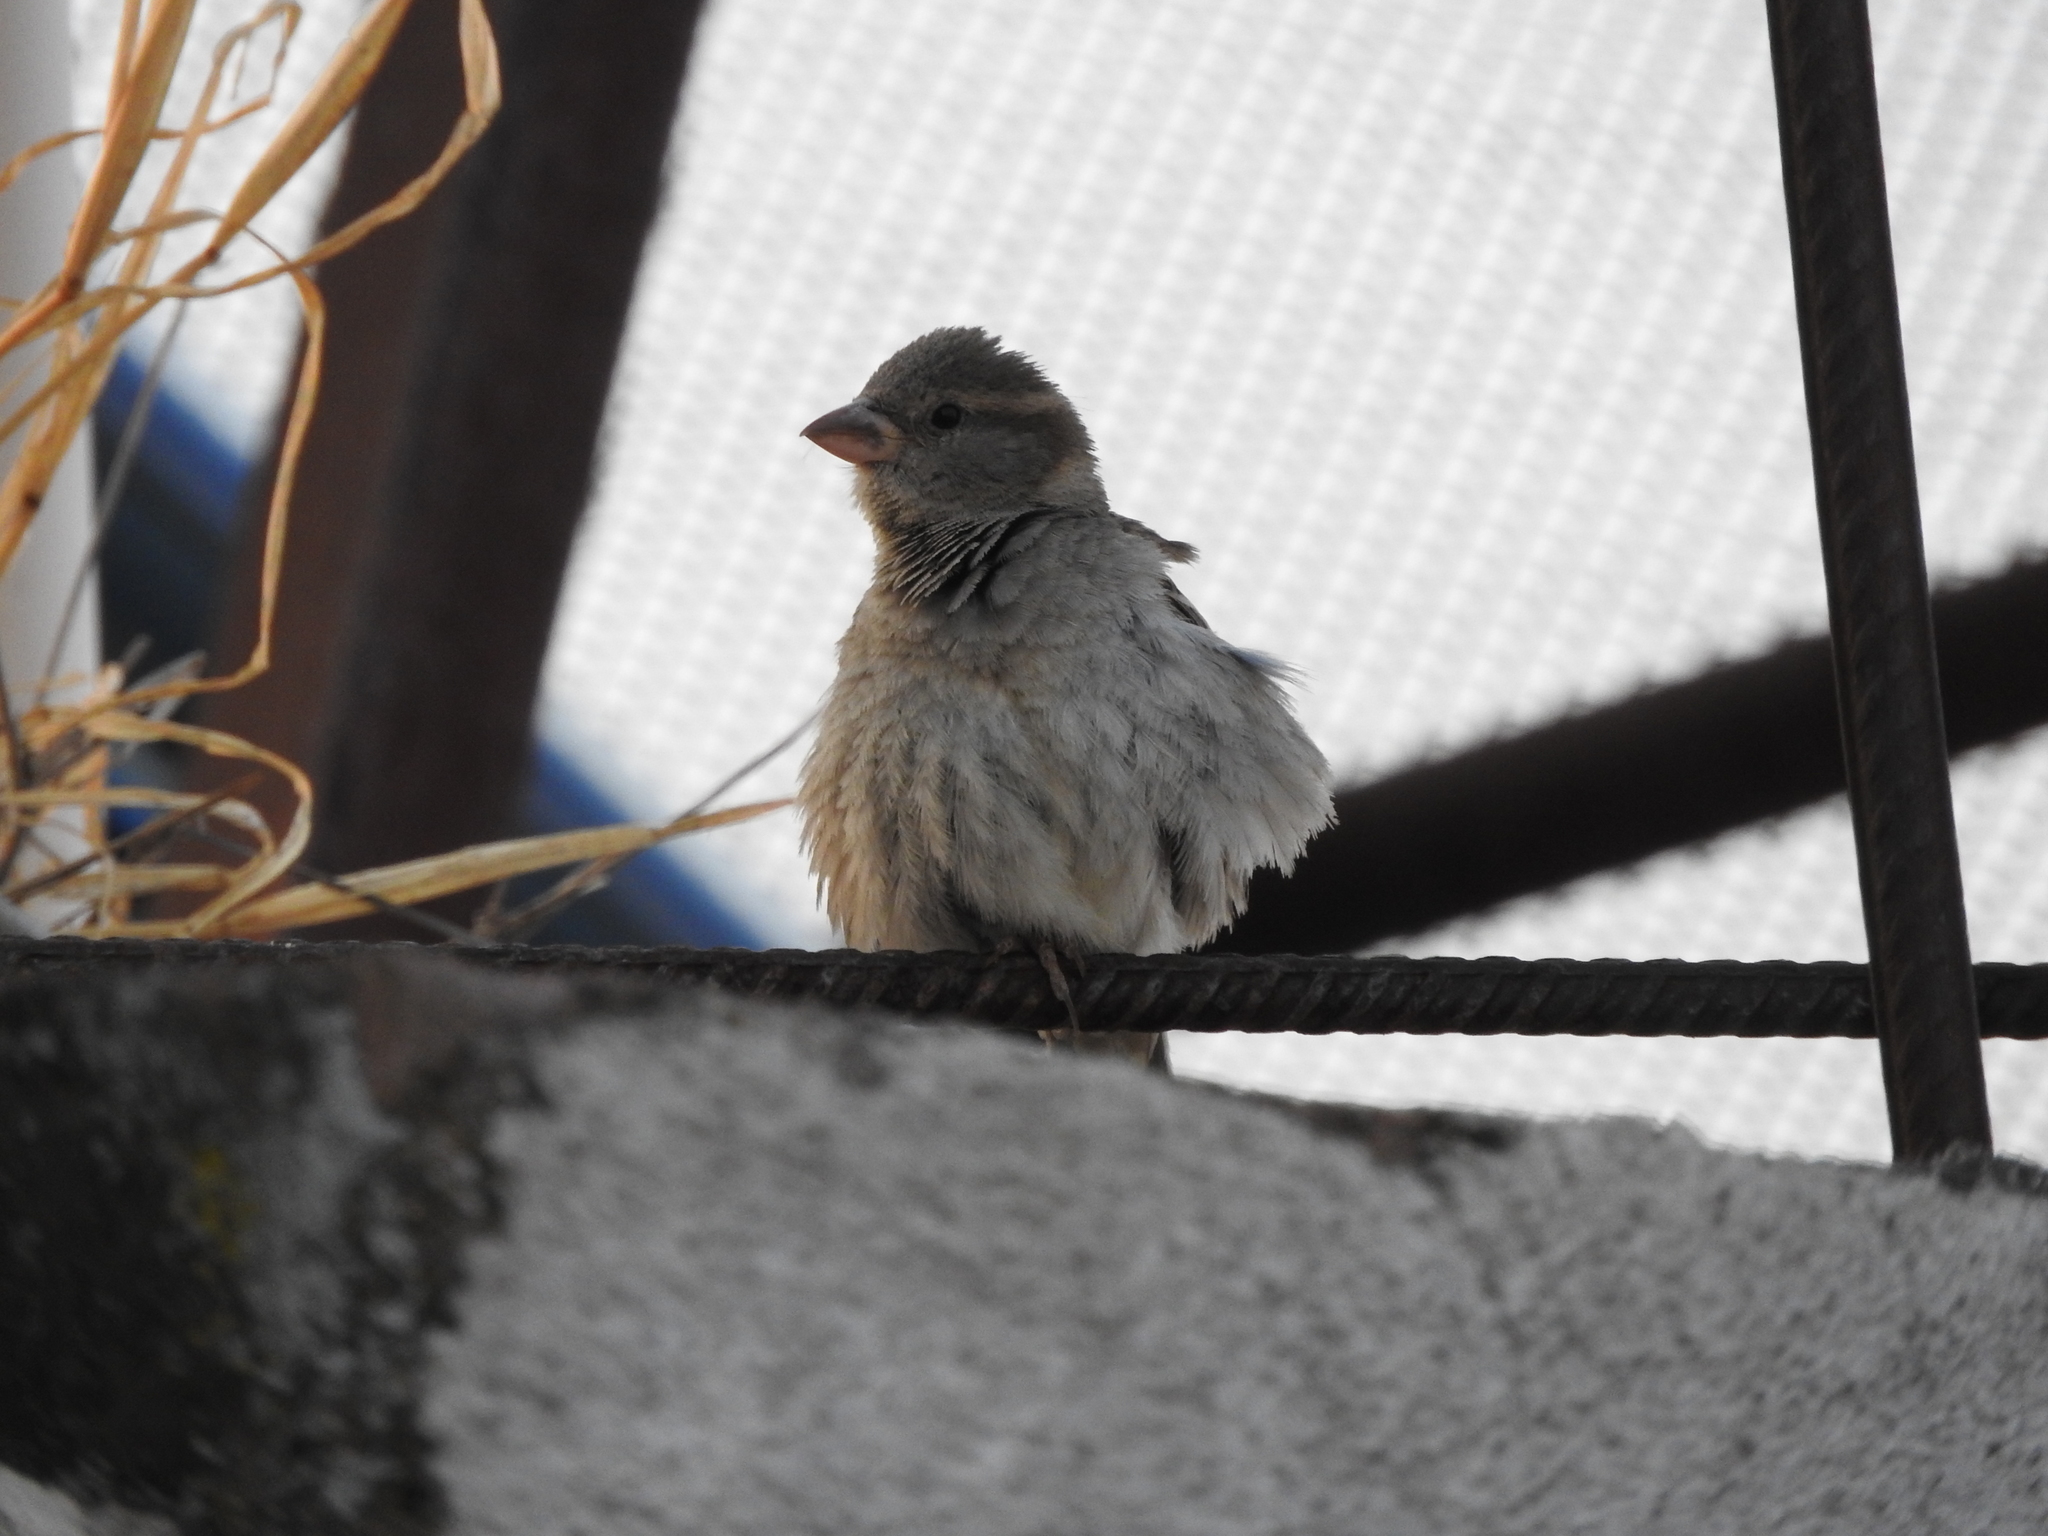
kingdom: Animalia
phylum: Chordata
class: Aves
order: Passeriformes
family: Passeridae
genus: Passer
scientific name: Passer domesticus
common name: House sparrow
